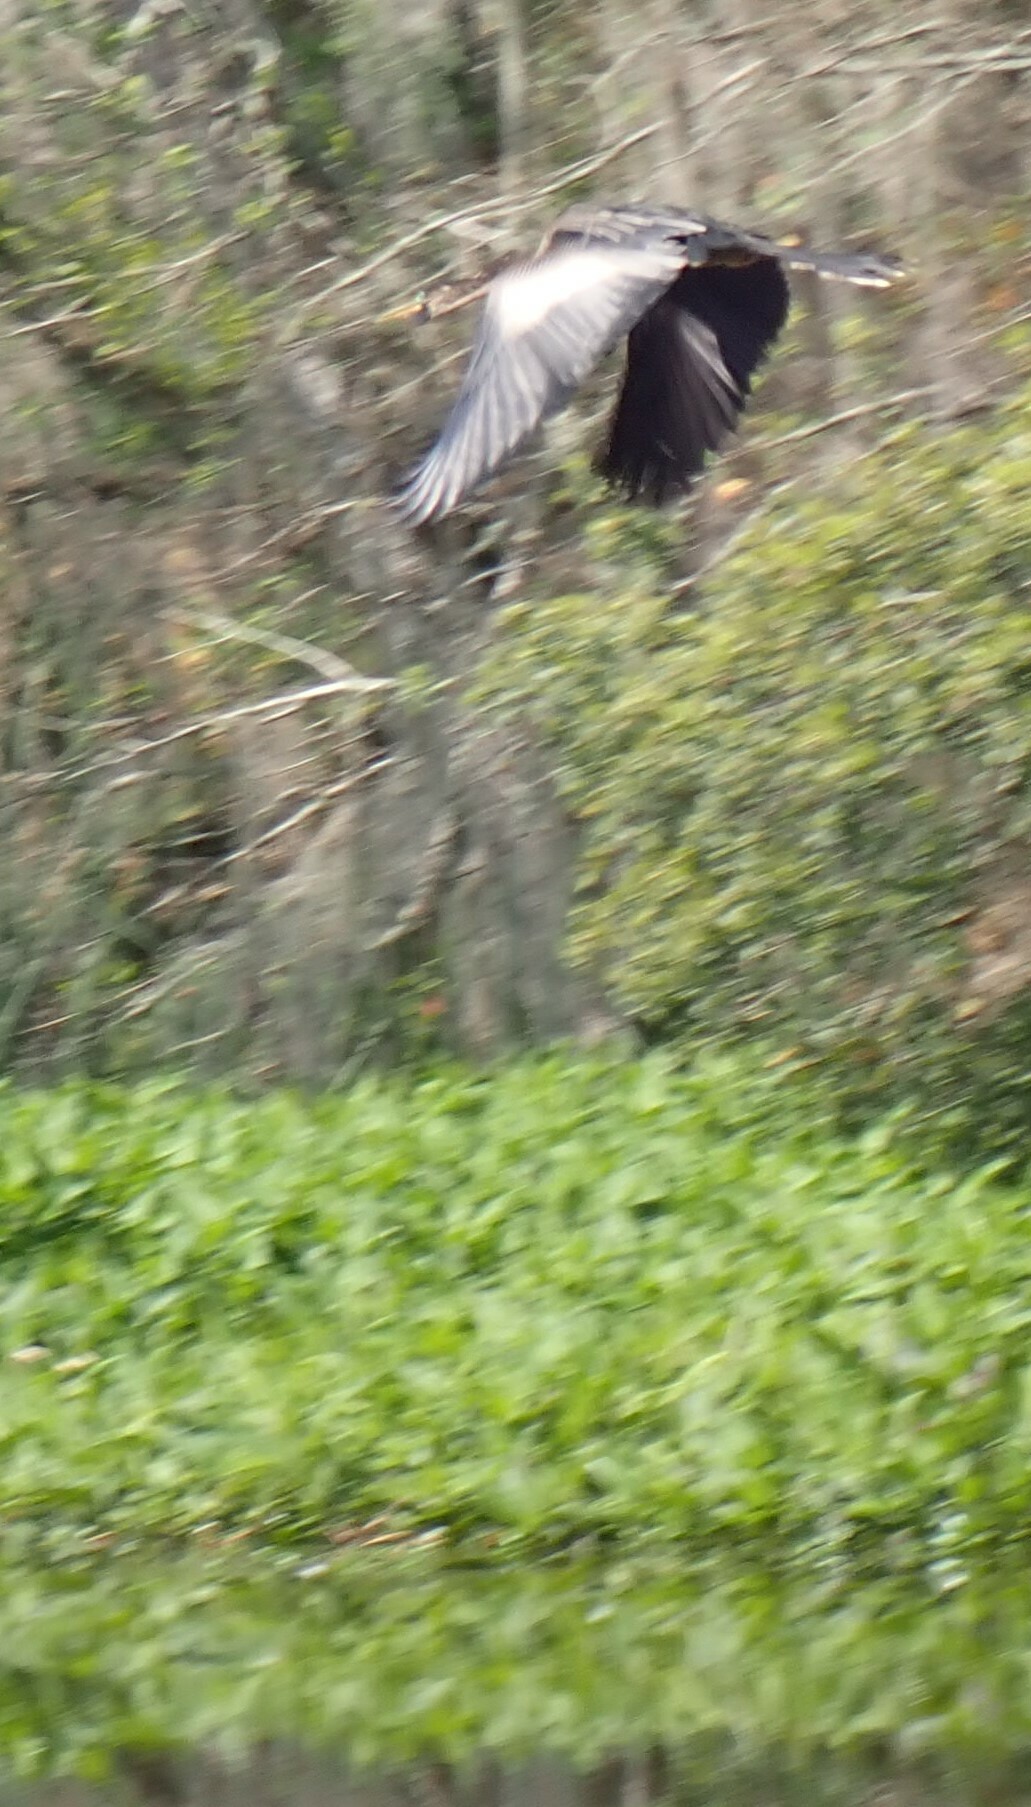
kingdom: Animalia
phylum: Chordata
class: Aves
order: Suliformes
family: Anhingidae
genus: Anhinga
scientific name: Anhinga anhinga
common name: Anhinga
